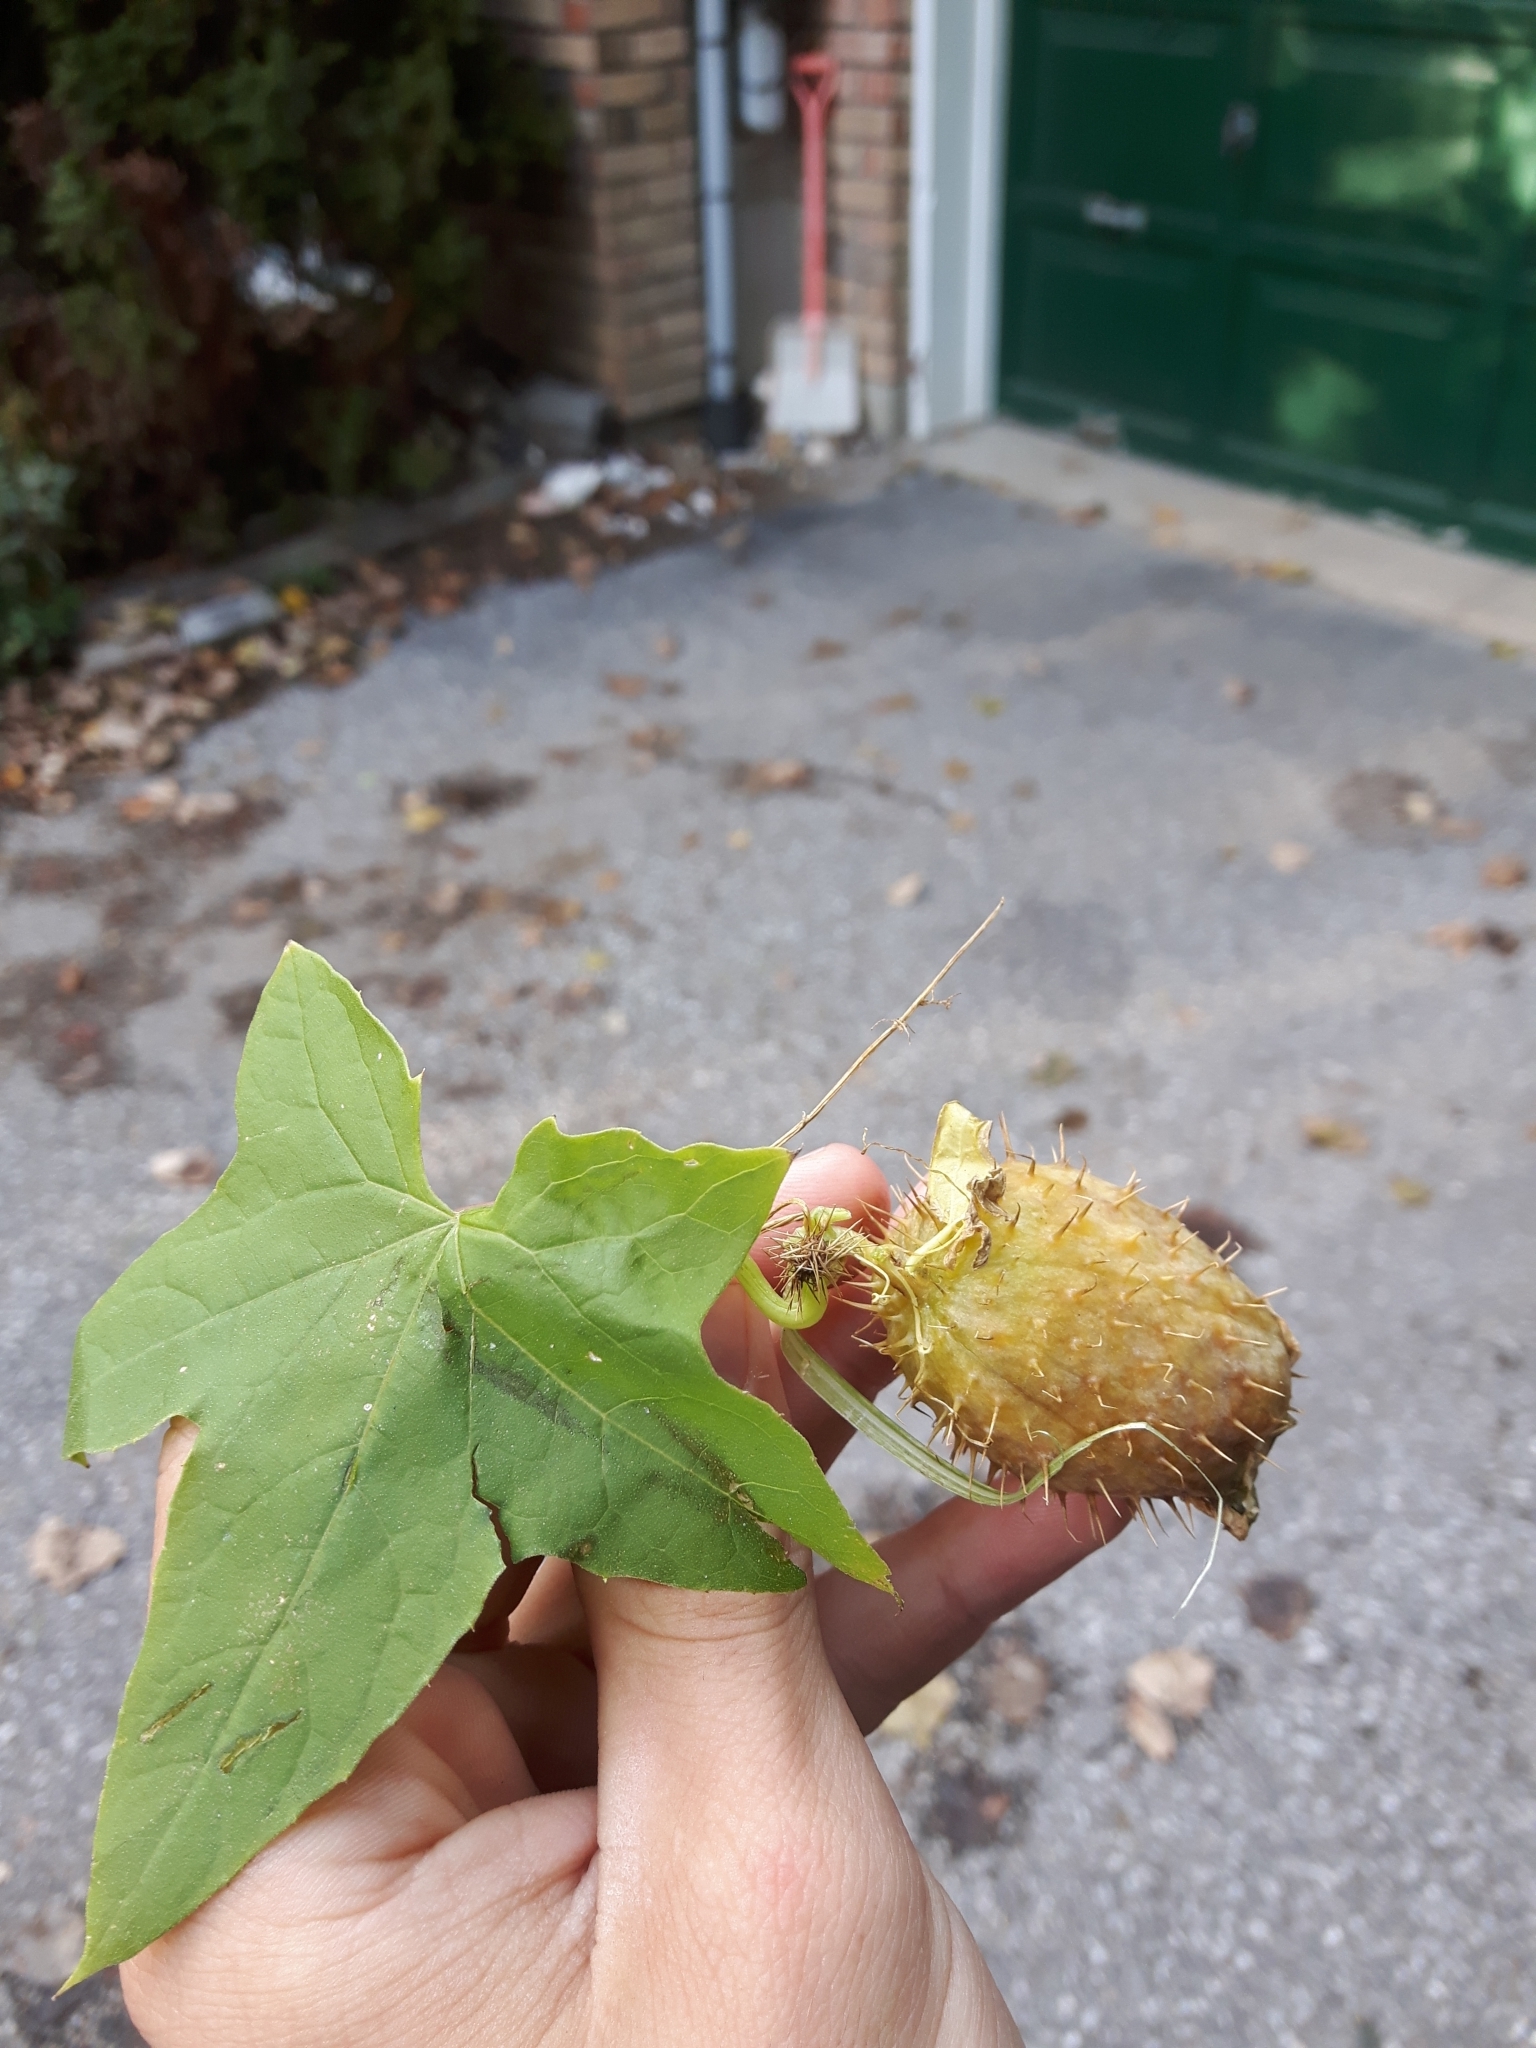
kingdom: Plantae
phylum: Tracheophyta
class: Magnoliopsida
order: Cucurbitales
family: Cucurbitaceae
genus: Echinocystis
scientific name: Echinocystis lobata
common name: Wild cucumber
